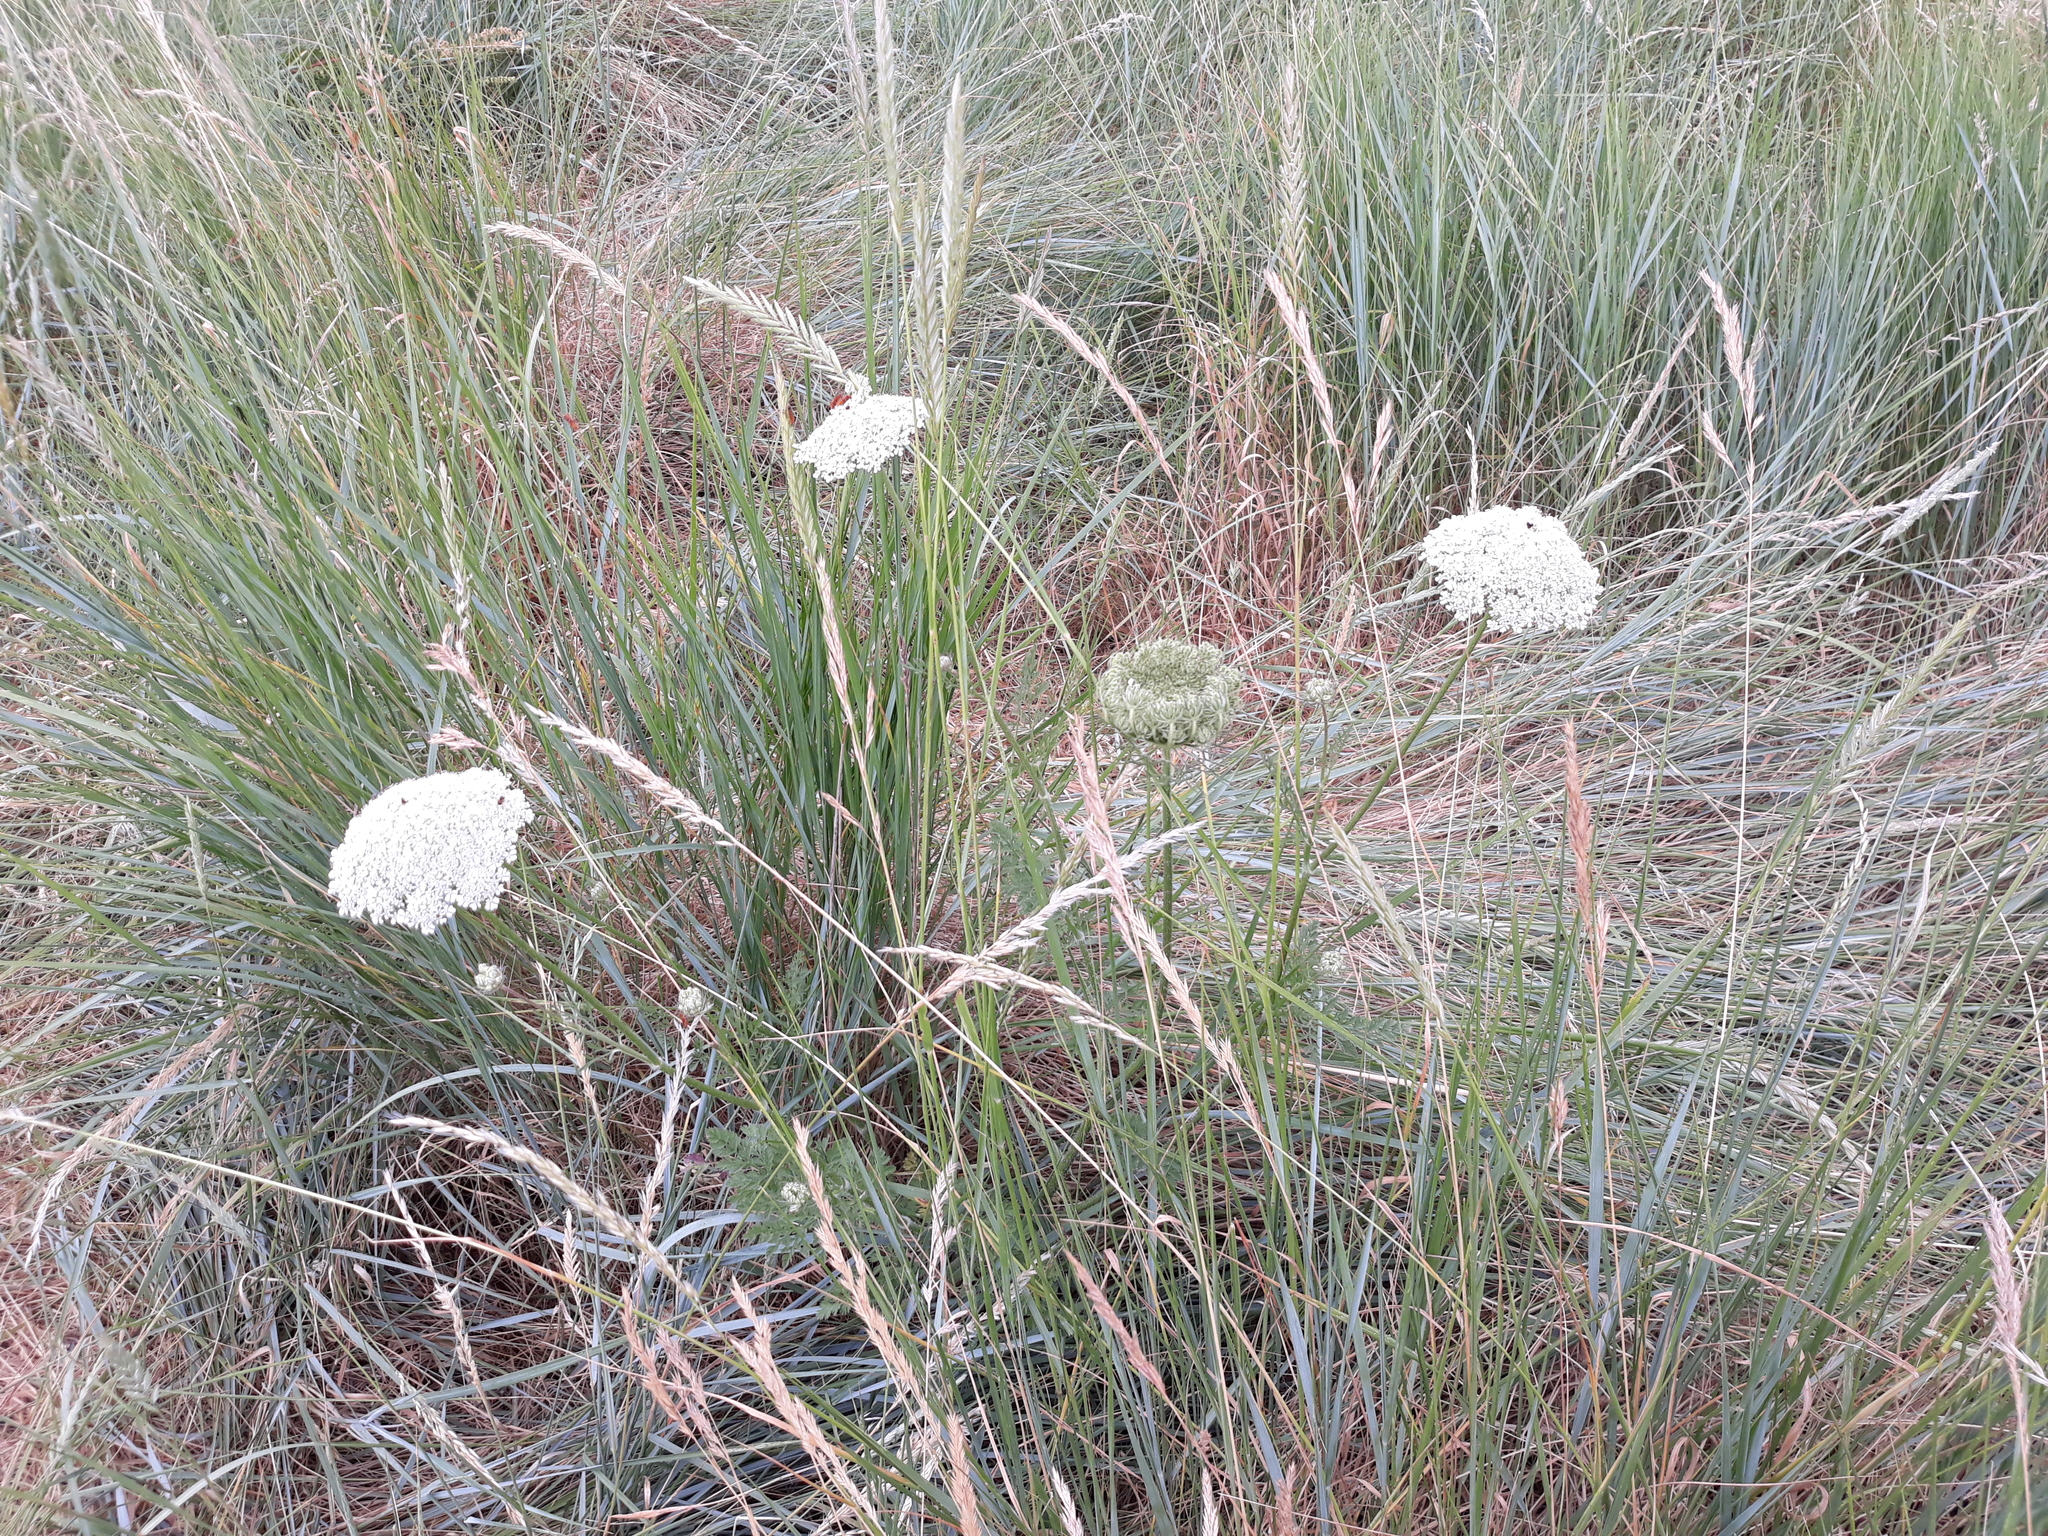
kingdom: Plantae
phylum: Tracheophyta
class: Magnoliopsida
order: Apiales
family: Apiaceae
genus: Daucus
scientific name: Daucus carota
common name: Wild carrot
